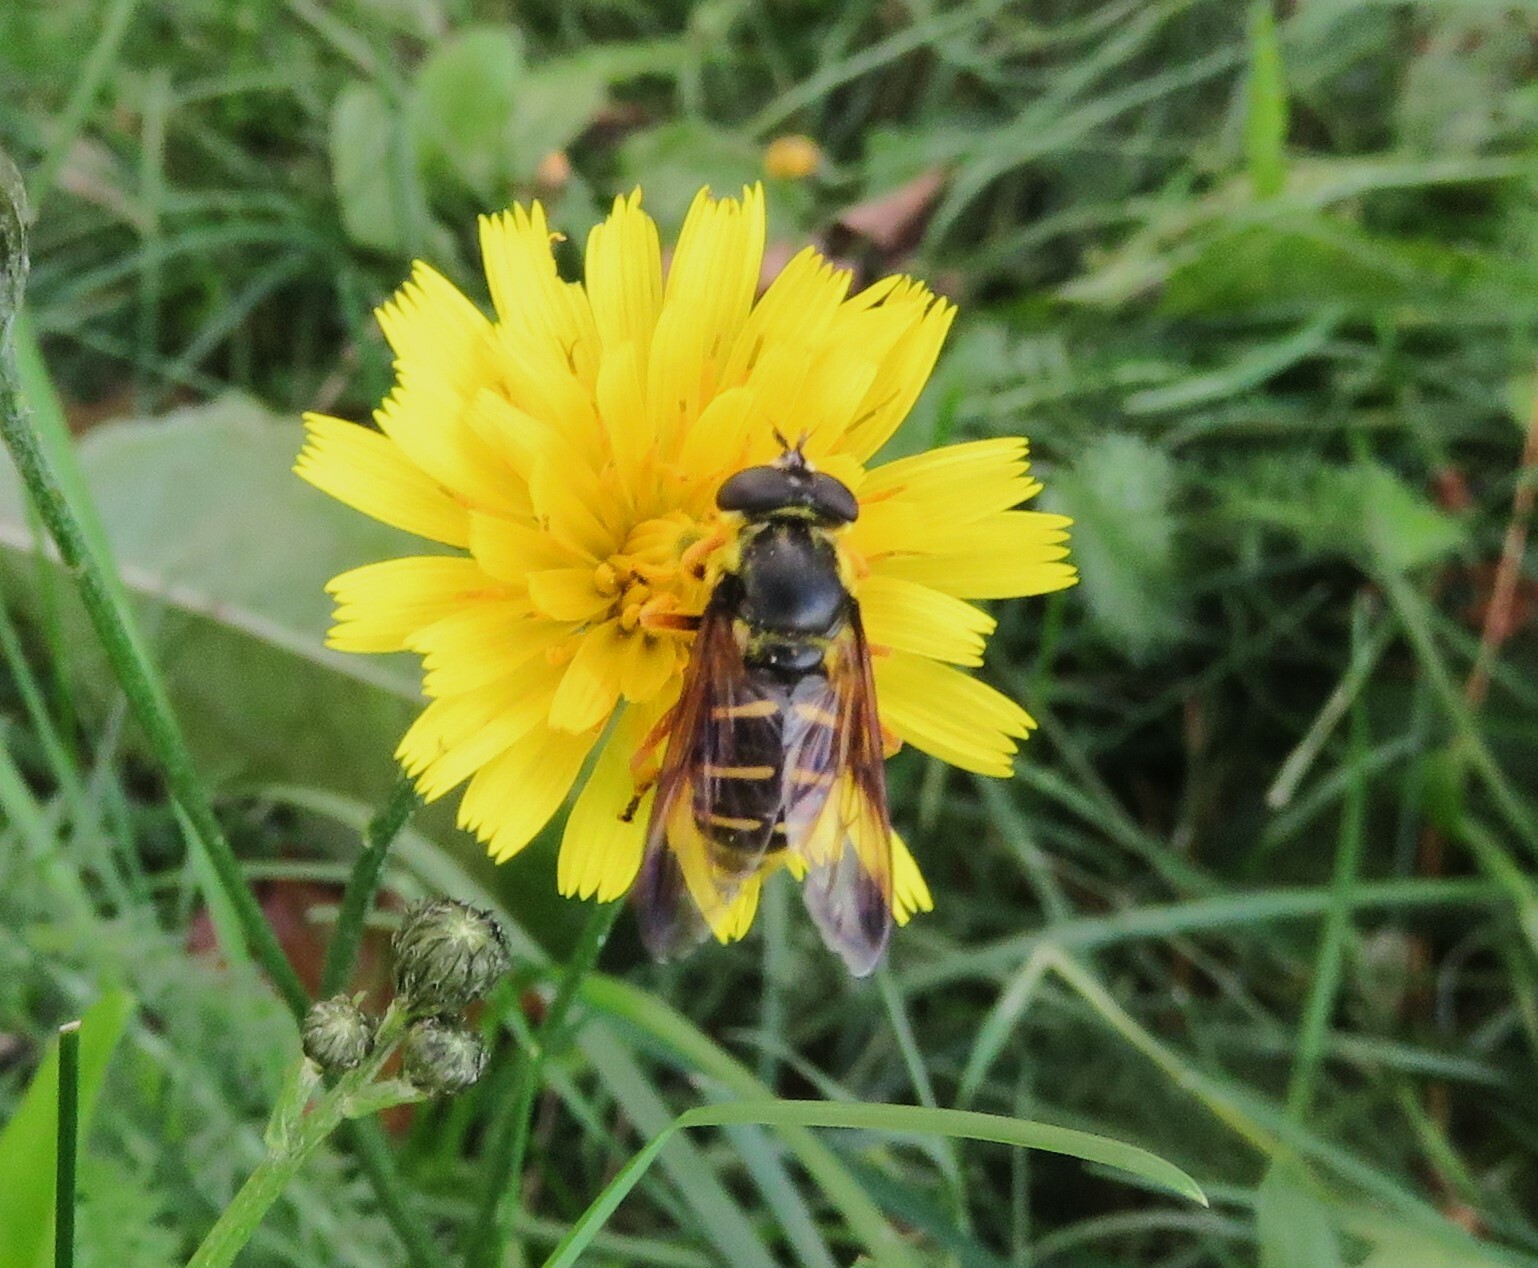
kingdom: Animalia
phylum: Arthropoda
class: Insecta
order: Diptera
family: Syrphidae
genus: Sericomyia
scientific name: Sericomyia chrysotoxoides
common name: Oblique-banded pond fly
